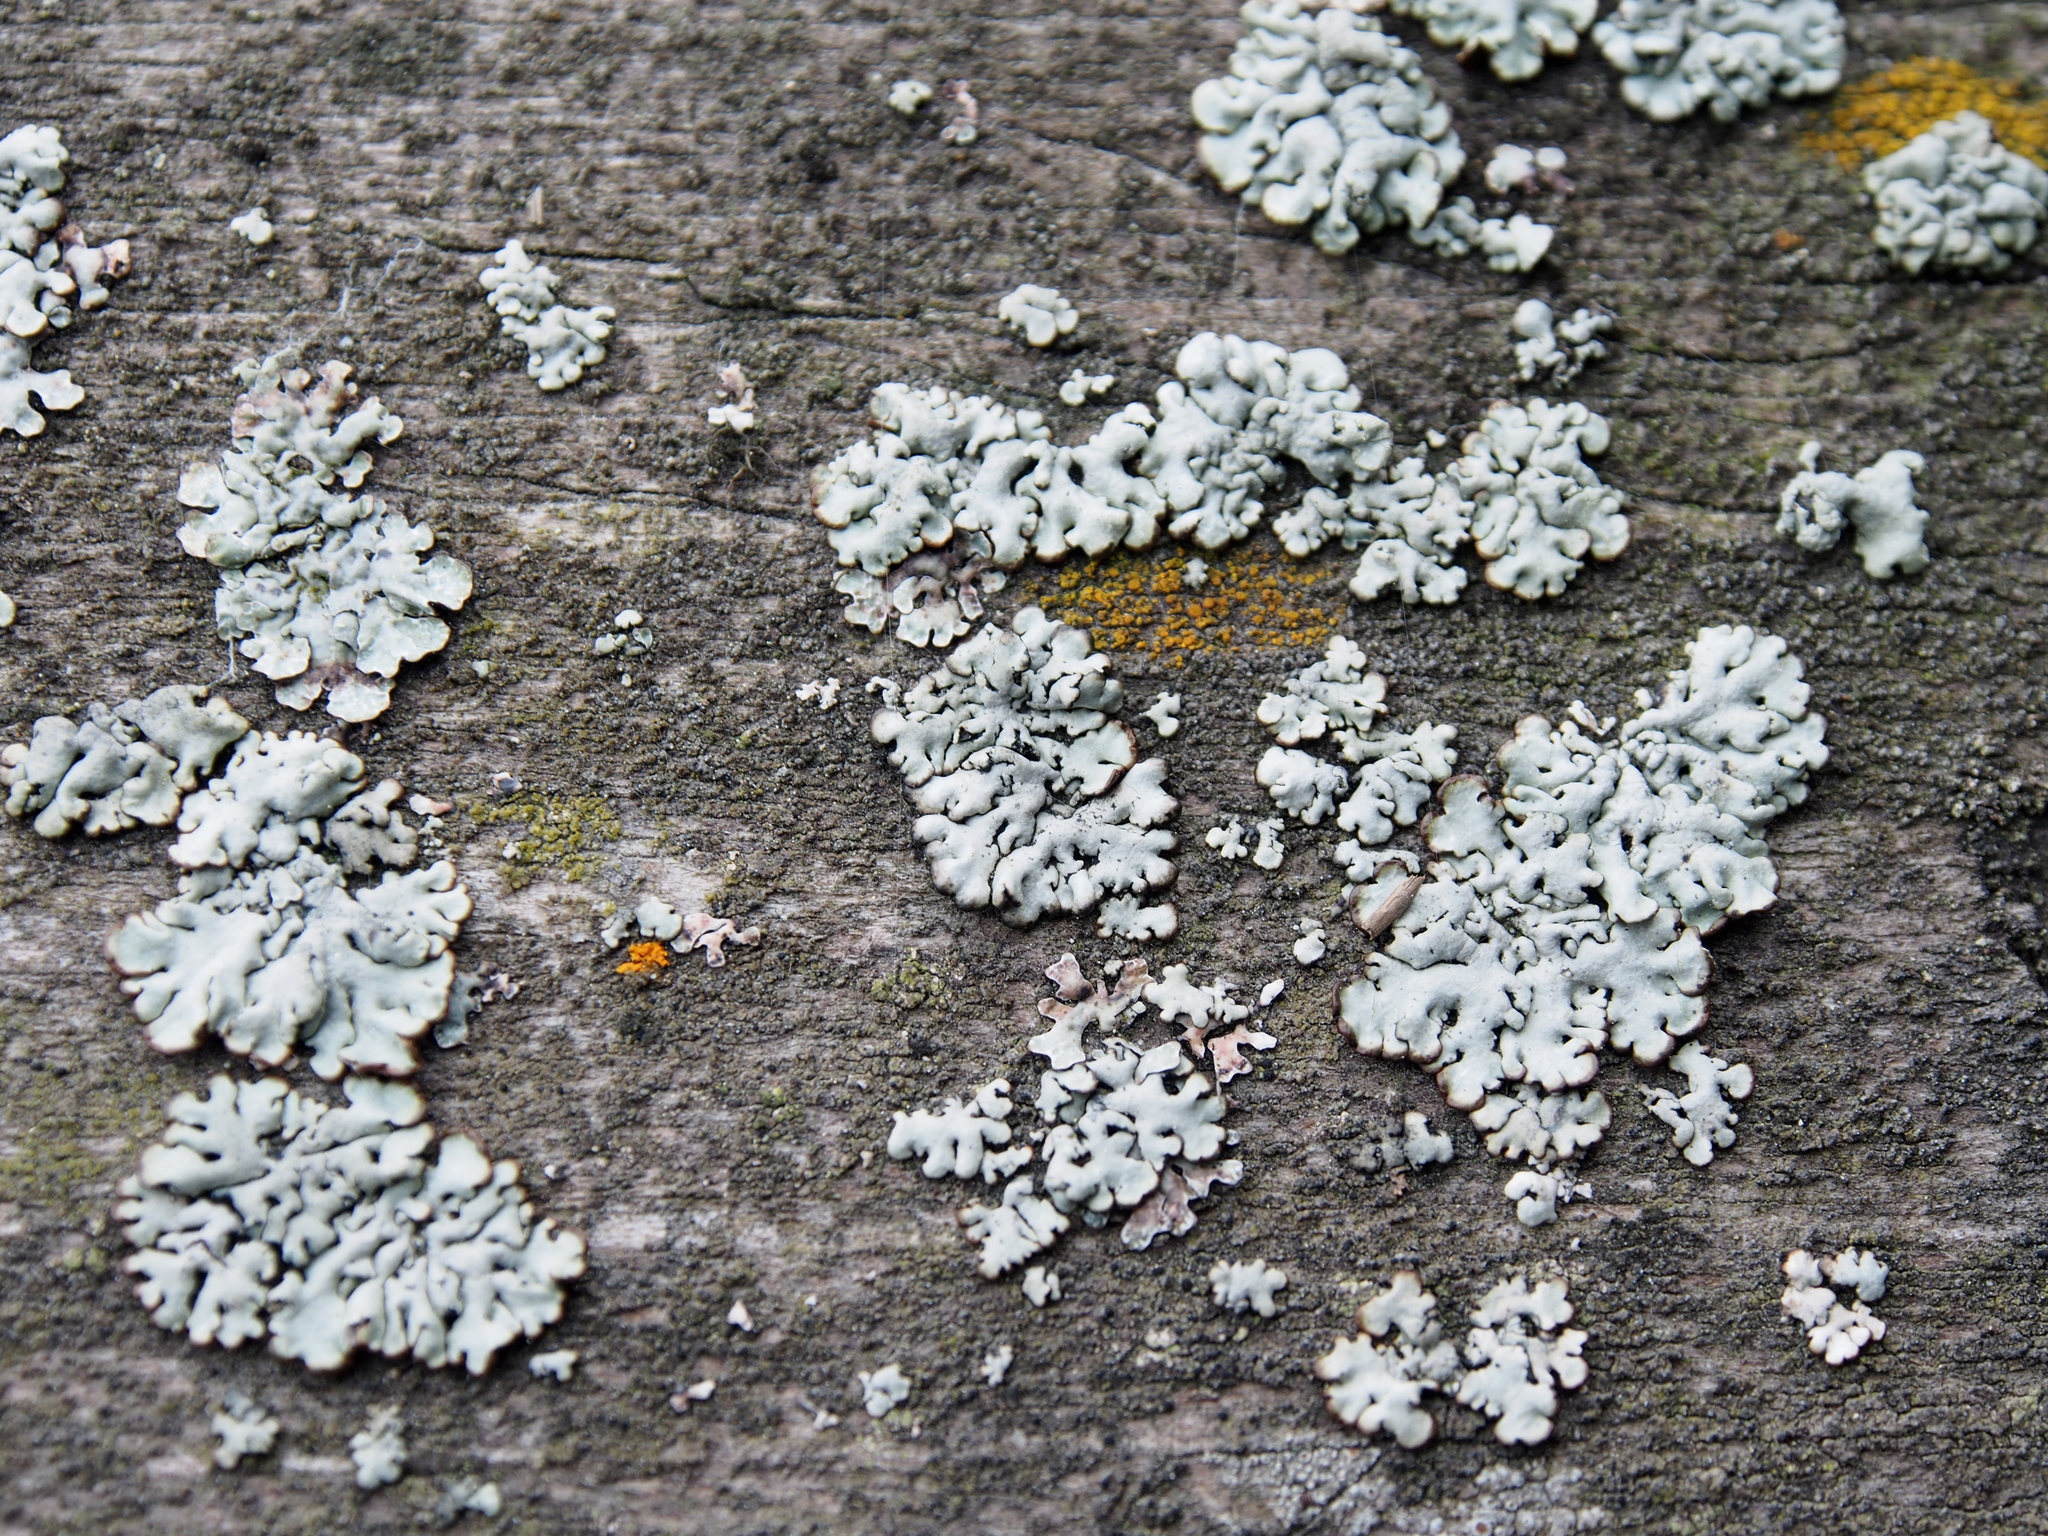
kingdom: Fungi
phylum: Ascomycota
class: Lecanoromycetes
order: Lecanorales
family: Parmeliaceae
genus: Hypogymnia
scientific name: Hypogymnia physodes
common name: Dark crottle
